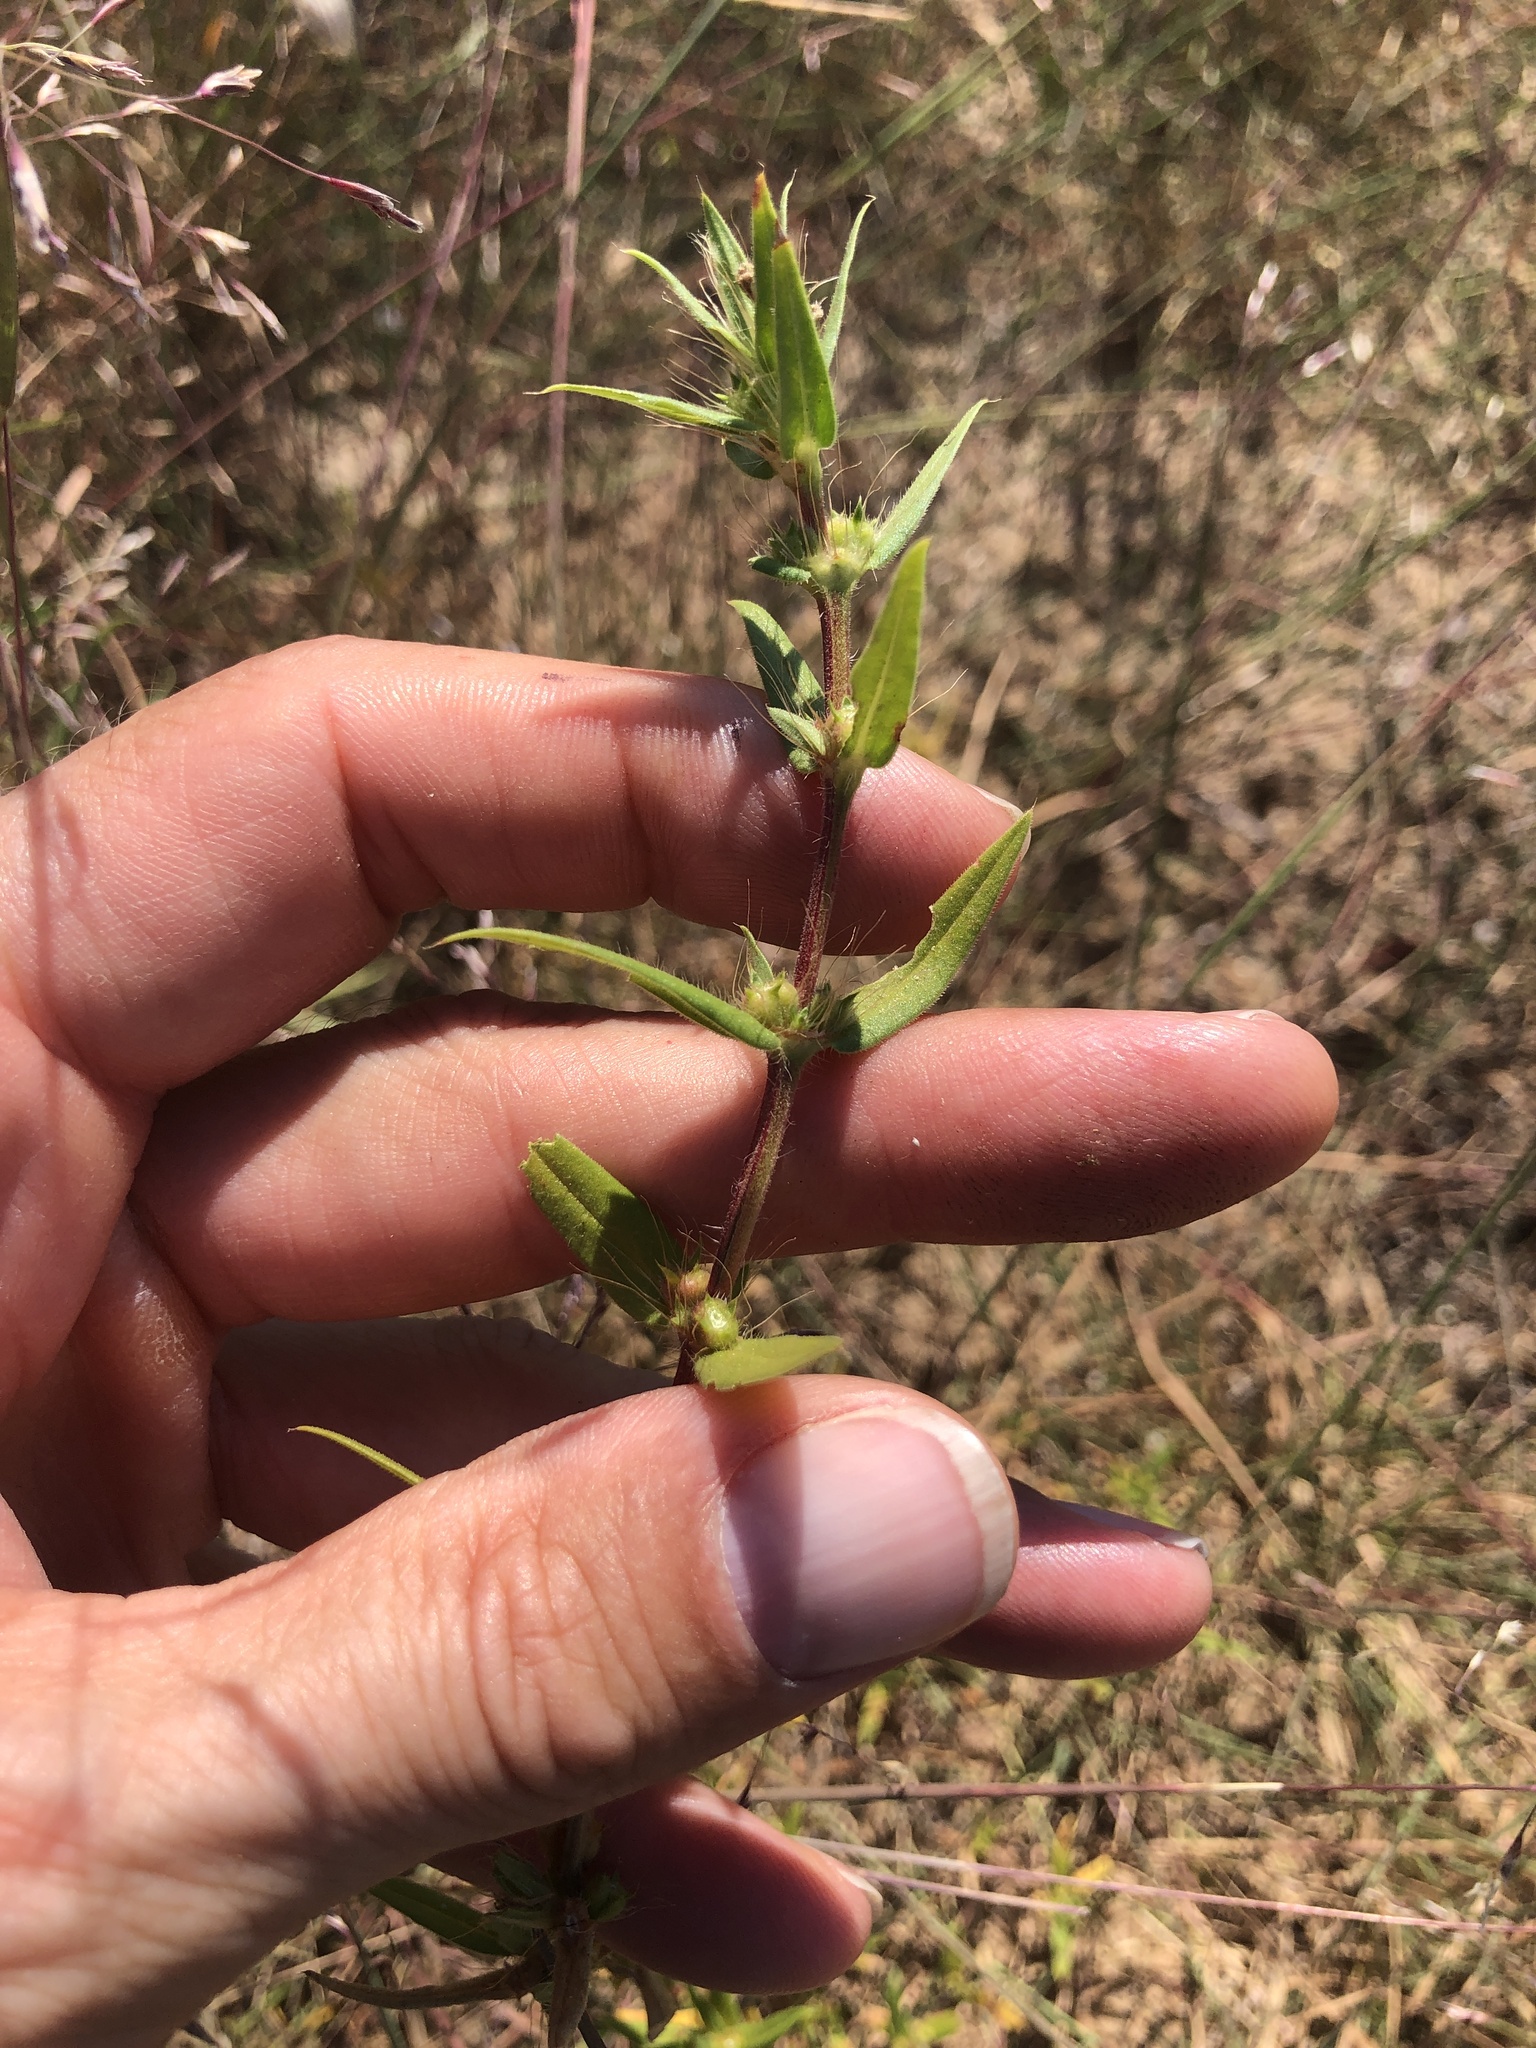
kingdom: Plantae
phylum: Tracheophyta
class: Magnoliopsida
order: Gentianales
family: Rubiaceae
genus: Hexasepalum
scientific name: Hexasepalum teres
